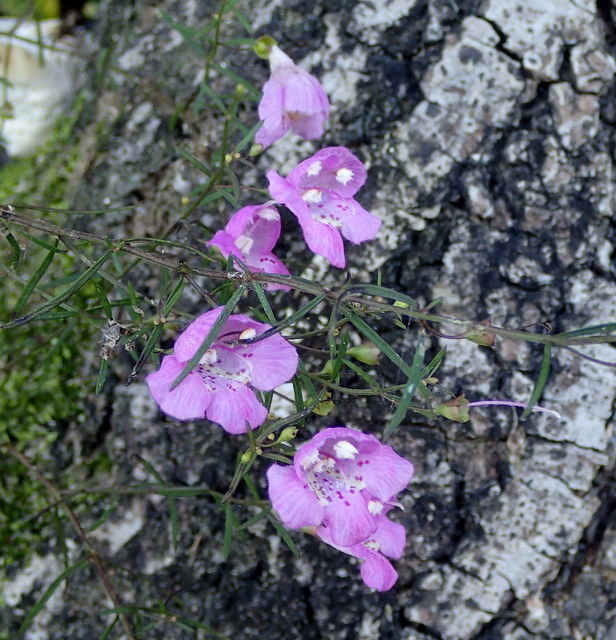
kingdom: Plantae
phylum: Tracheophyta
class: Magnoliopsida
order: Lamiales
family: Orobanchaceae
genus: Agalinis
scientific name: Agalinis purpurea
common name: Purple false foxglove
